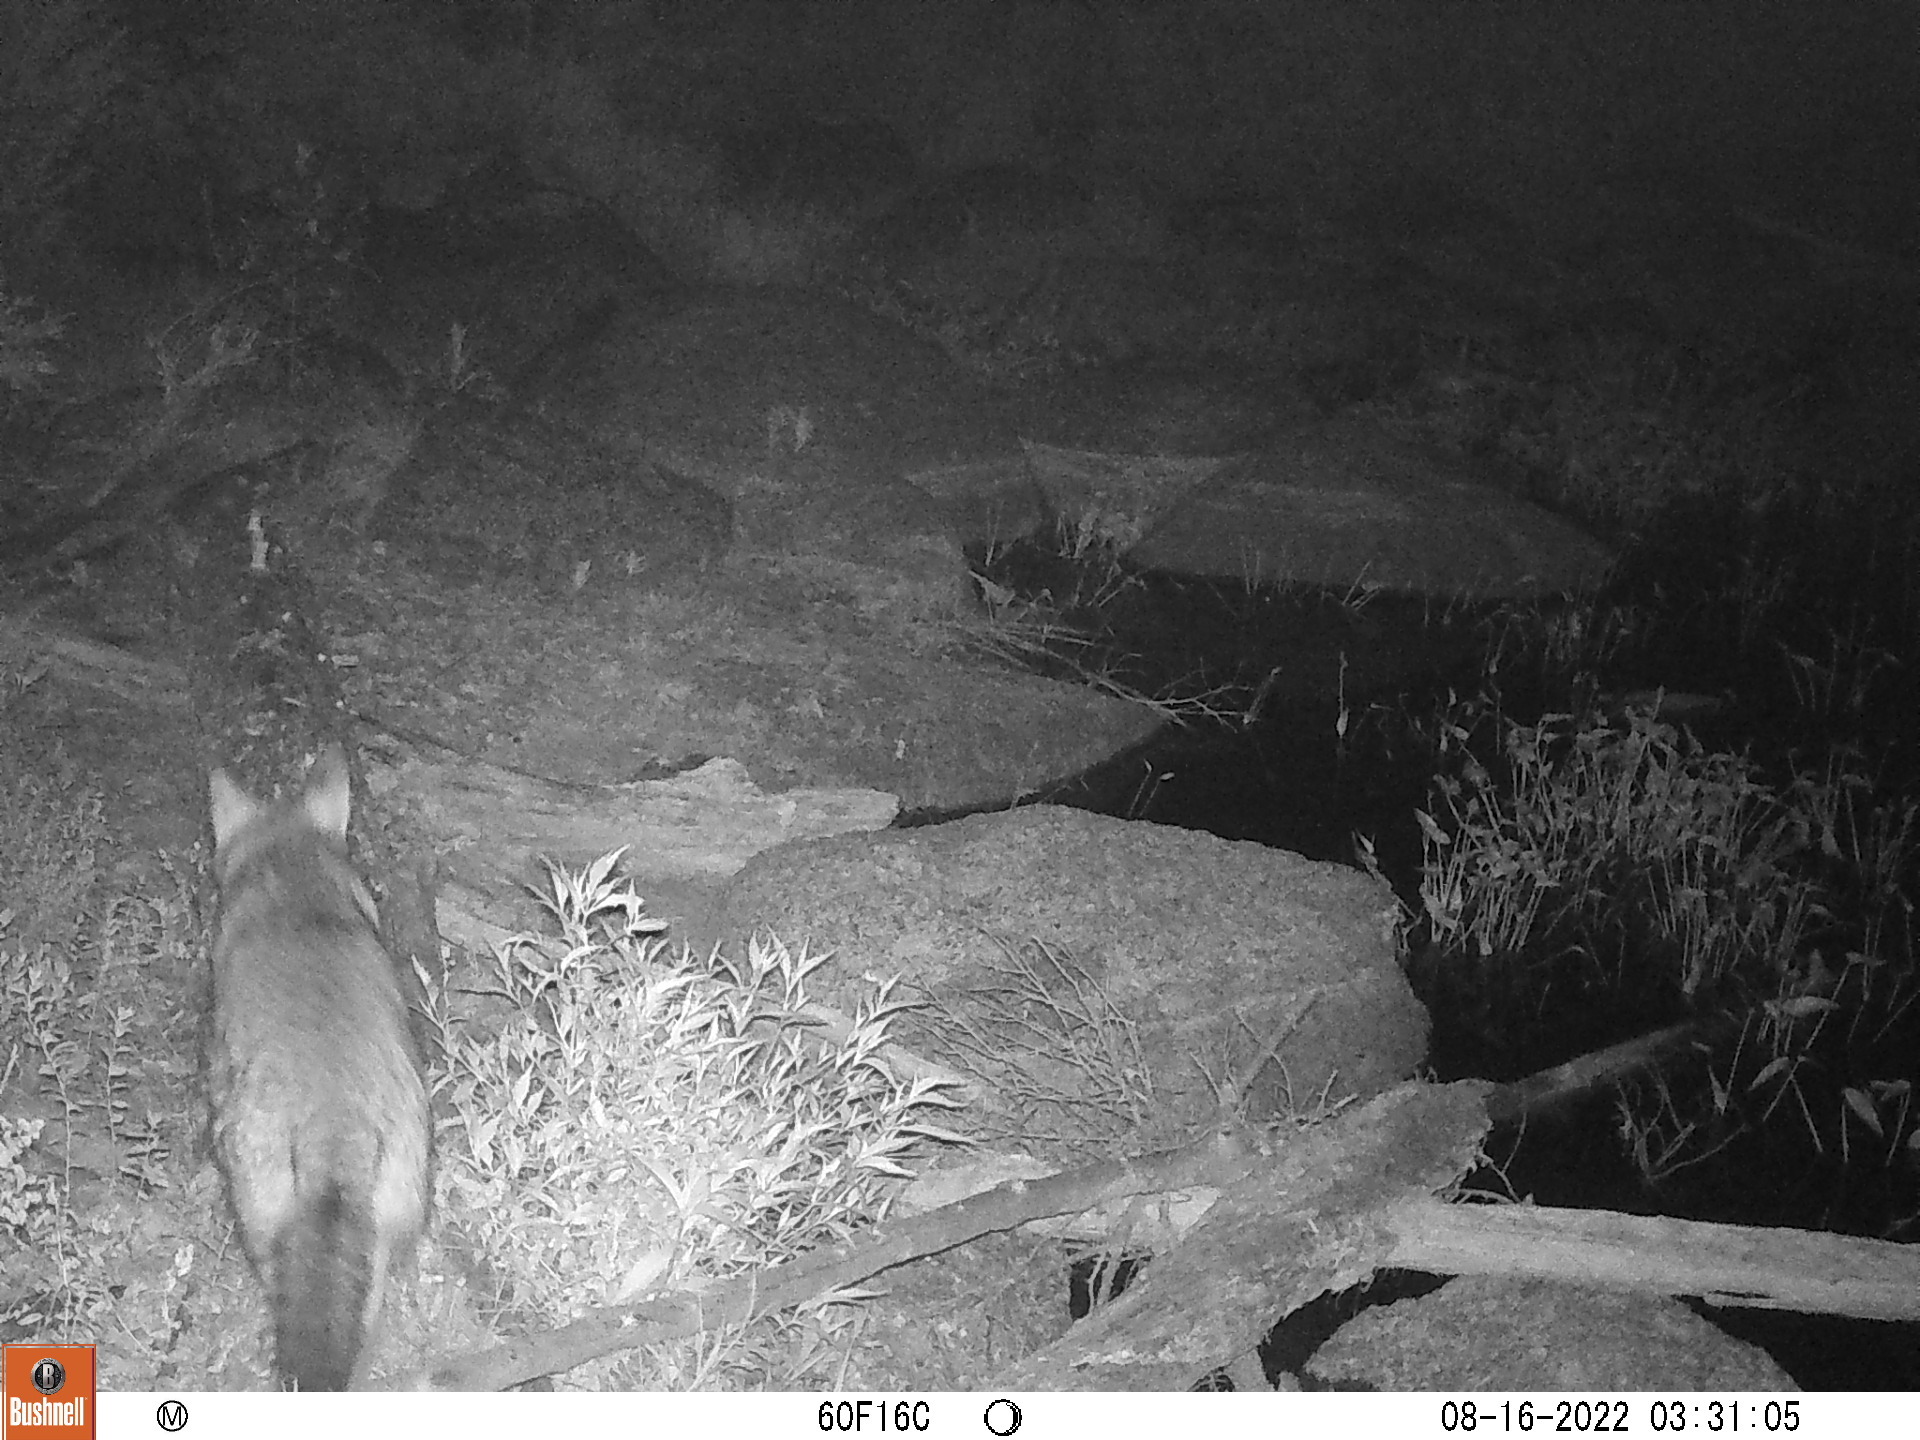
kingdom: Animalia
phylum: Chordata
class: Mammalia
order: Carnivora
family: Canidae
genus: Canis
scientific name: Canis latrans
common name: Coyote
